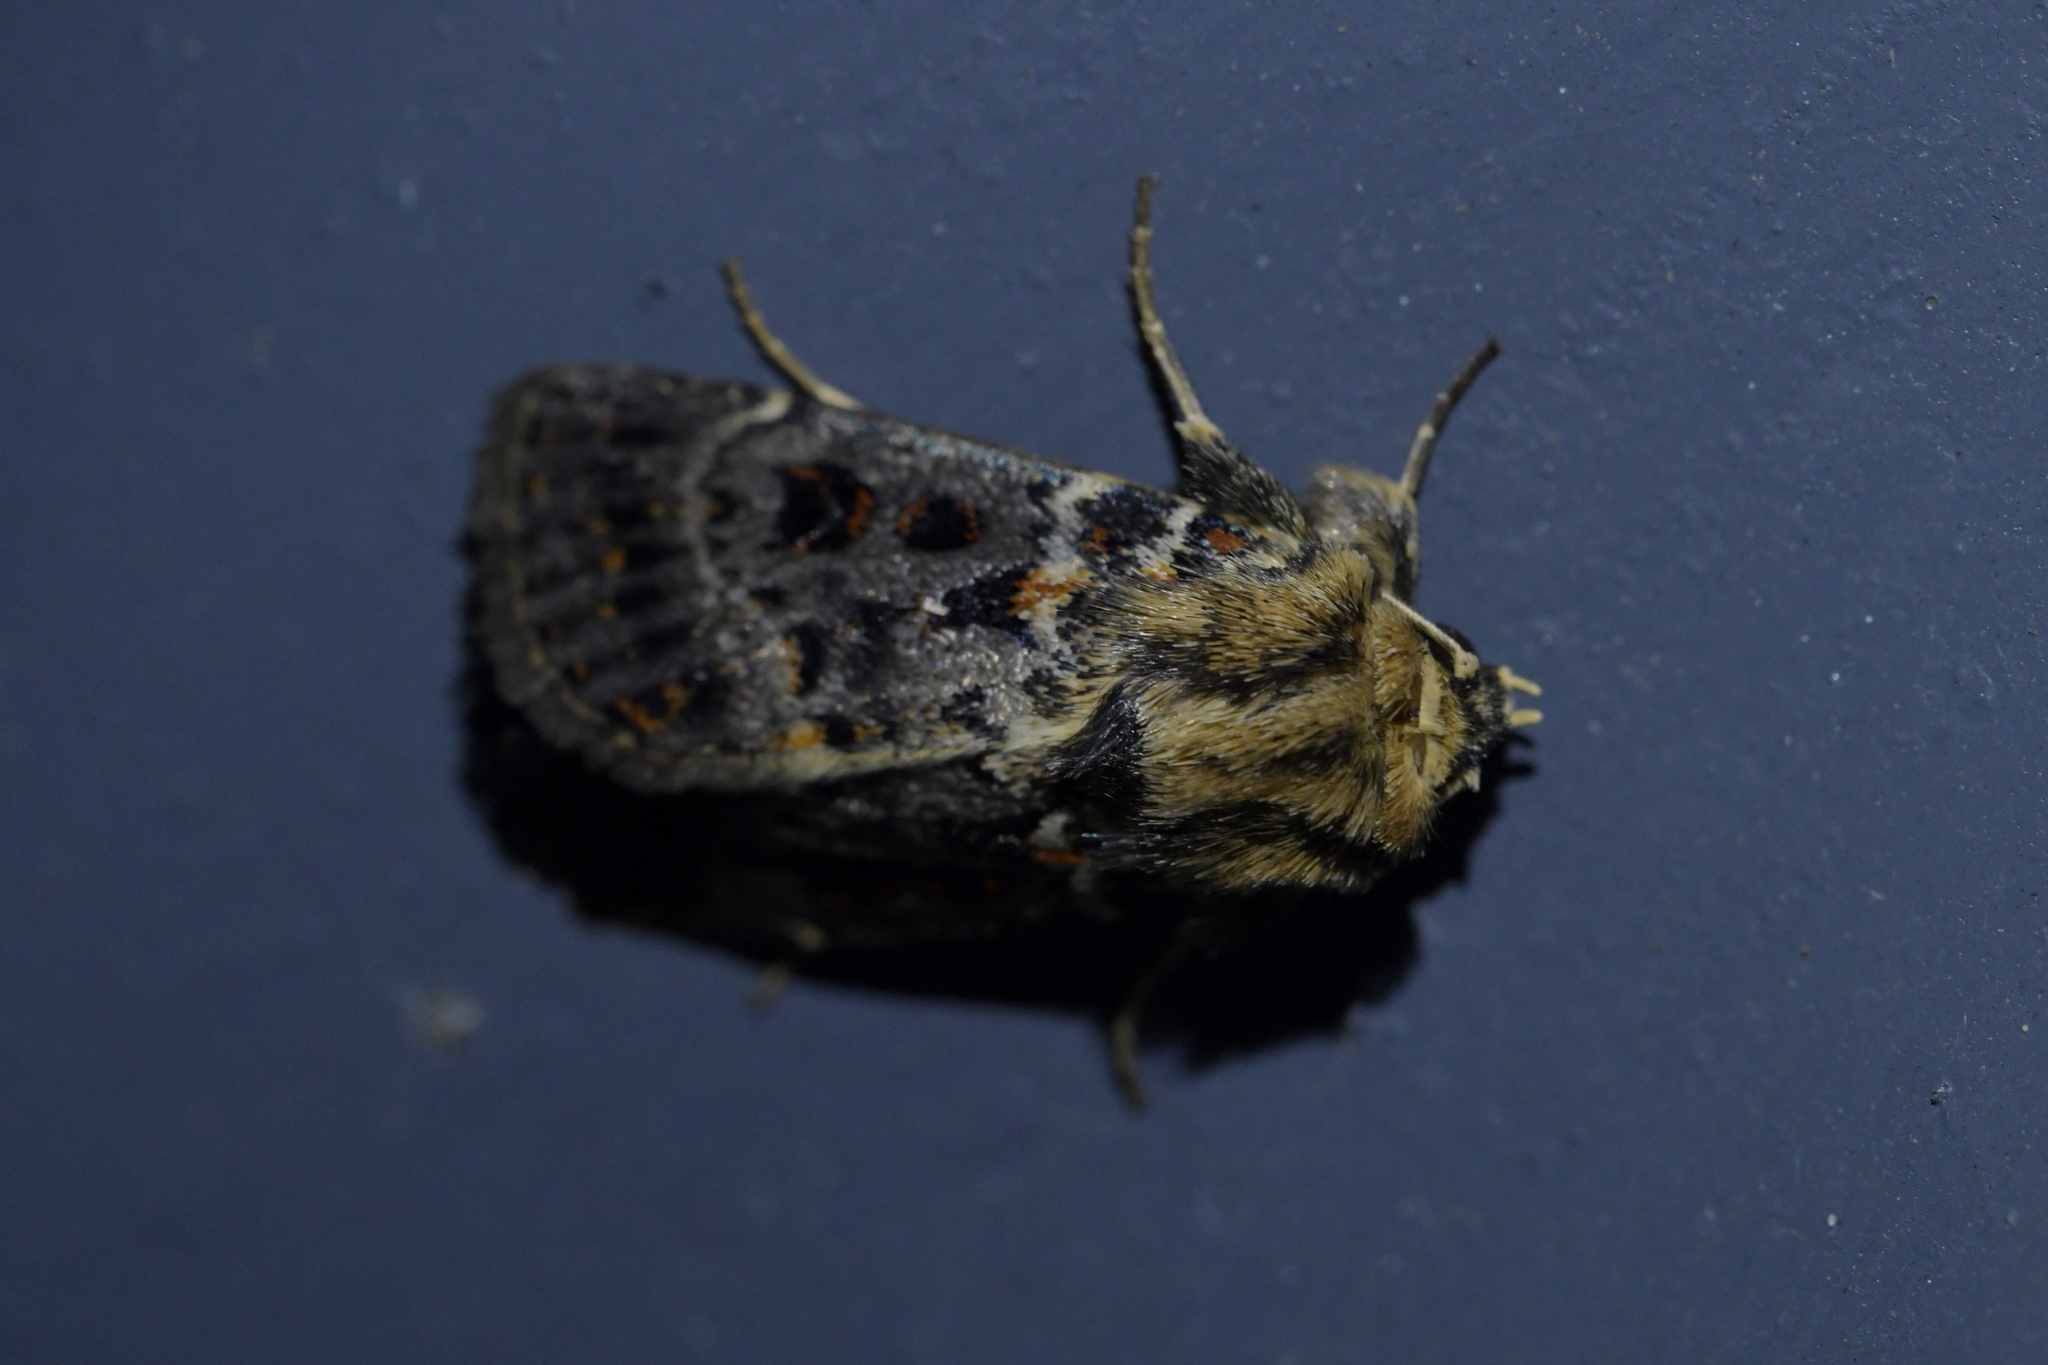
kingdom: Animalia
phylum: Arthropoda
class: Insecta
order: Lepidoptera
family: Noctuidae
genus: Proteuxoa
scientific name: Proteuxoa sanguinipuncta
